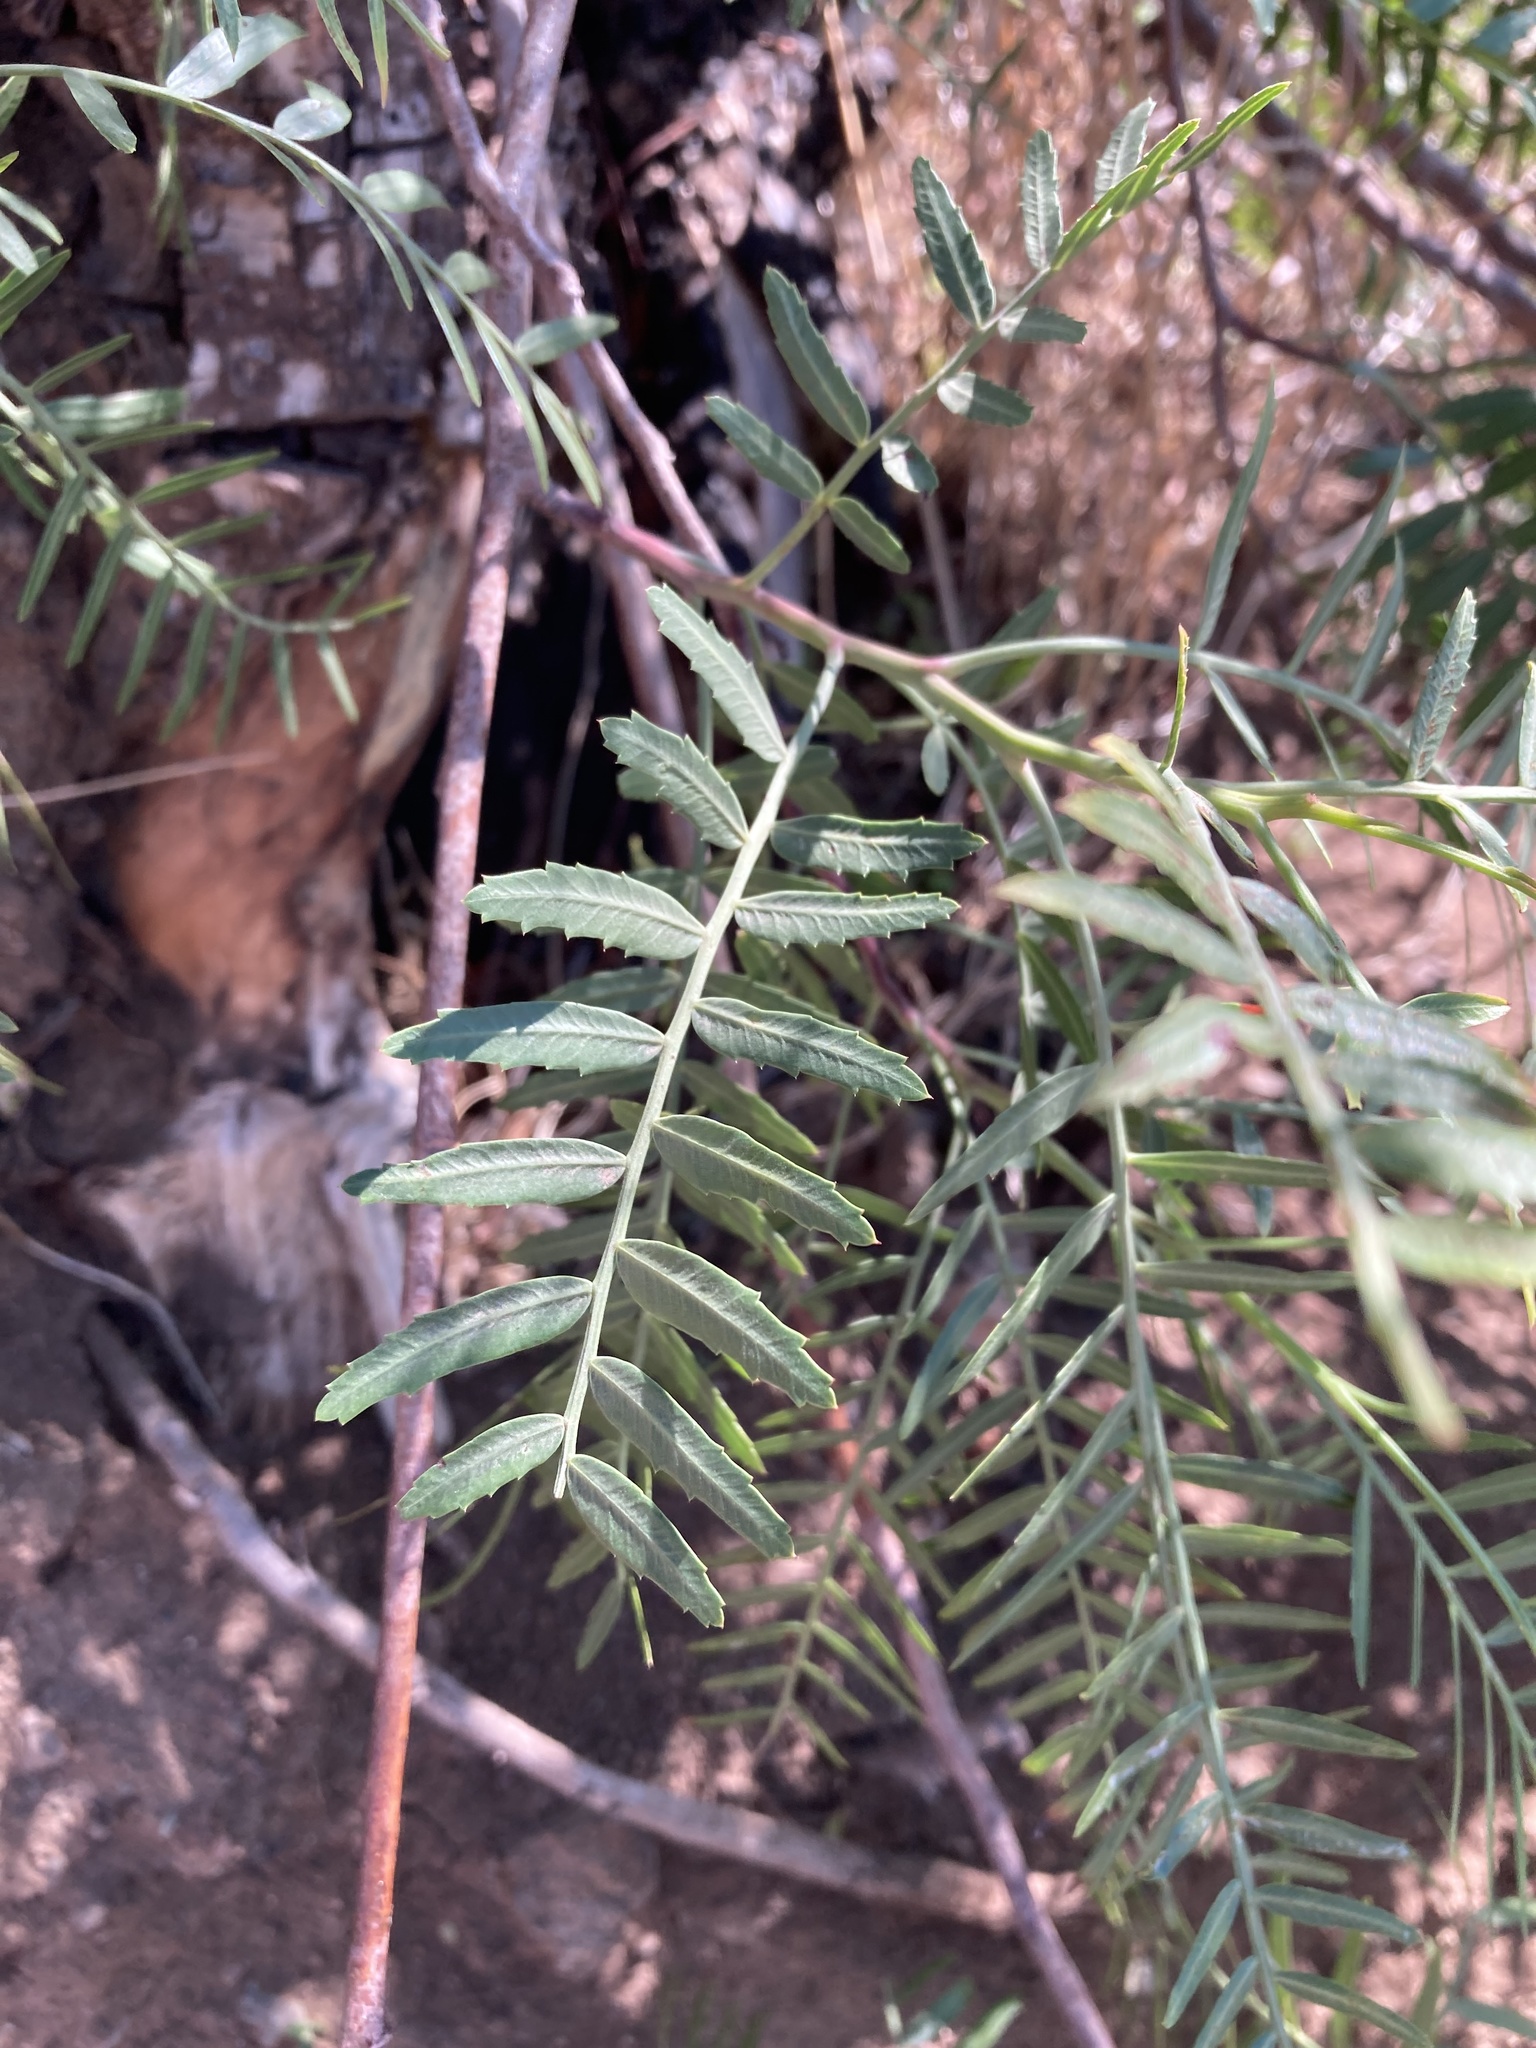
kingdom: Plantae
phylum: Tracheophyta
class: Magnoliopsida
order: Sapindales
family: Anacardiaceae
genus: Schinus
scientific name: Schinus molle
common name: Peruvian peppertree
